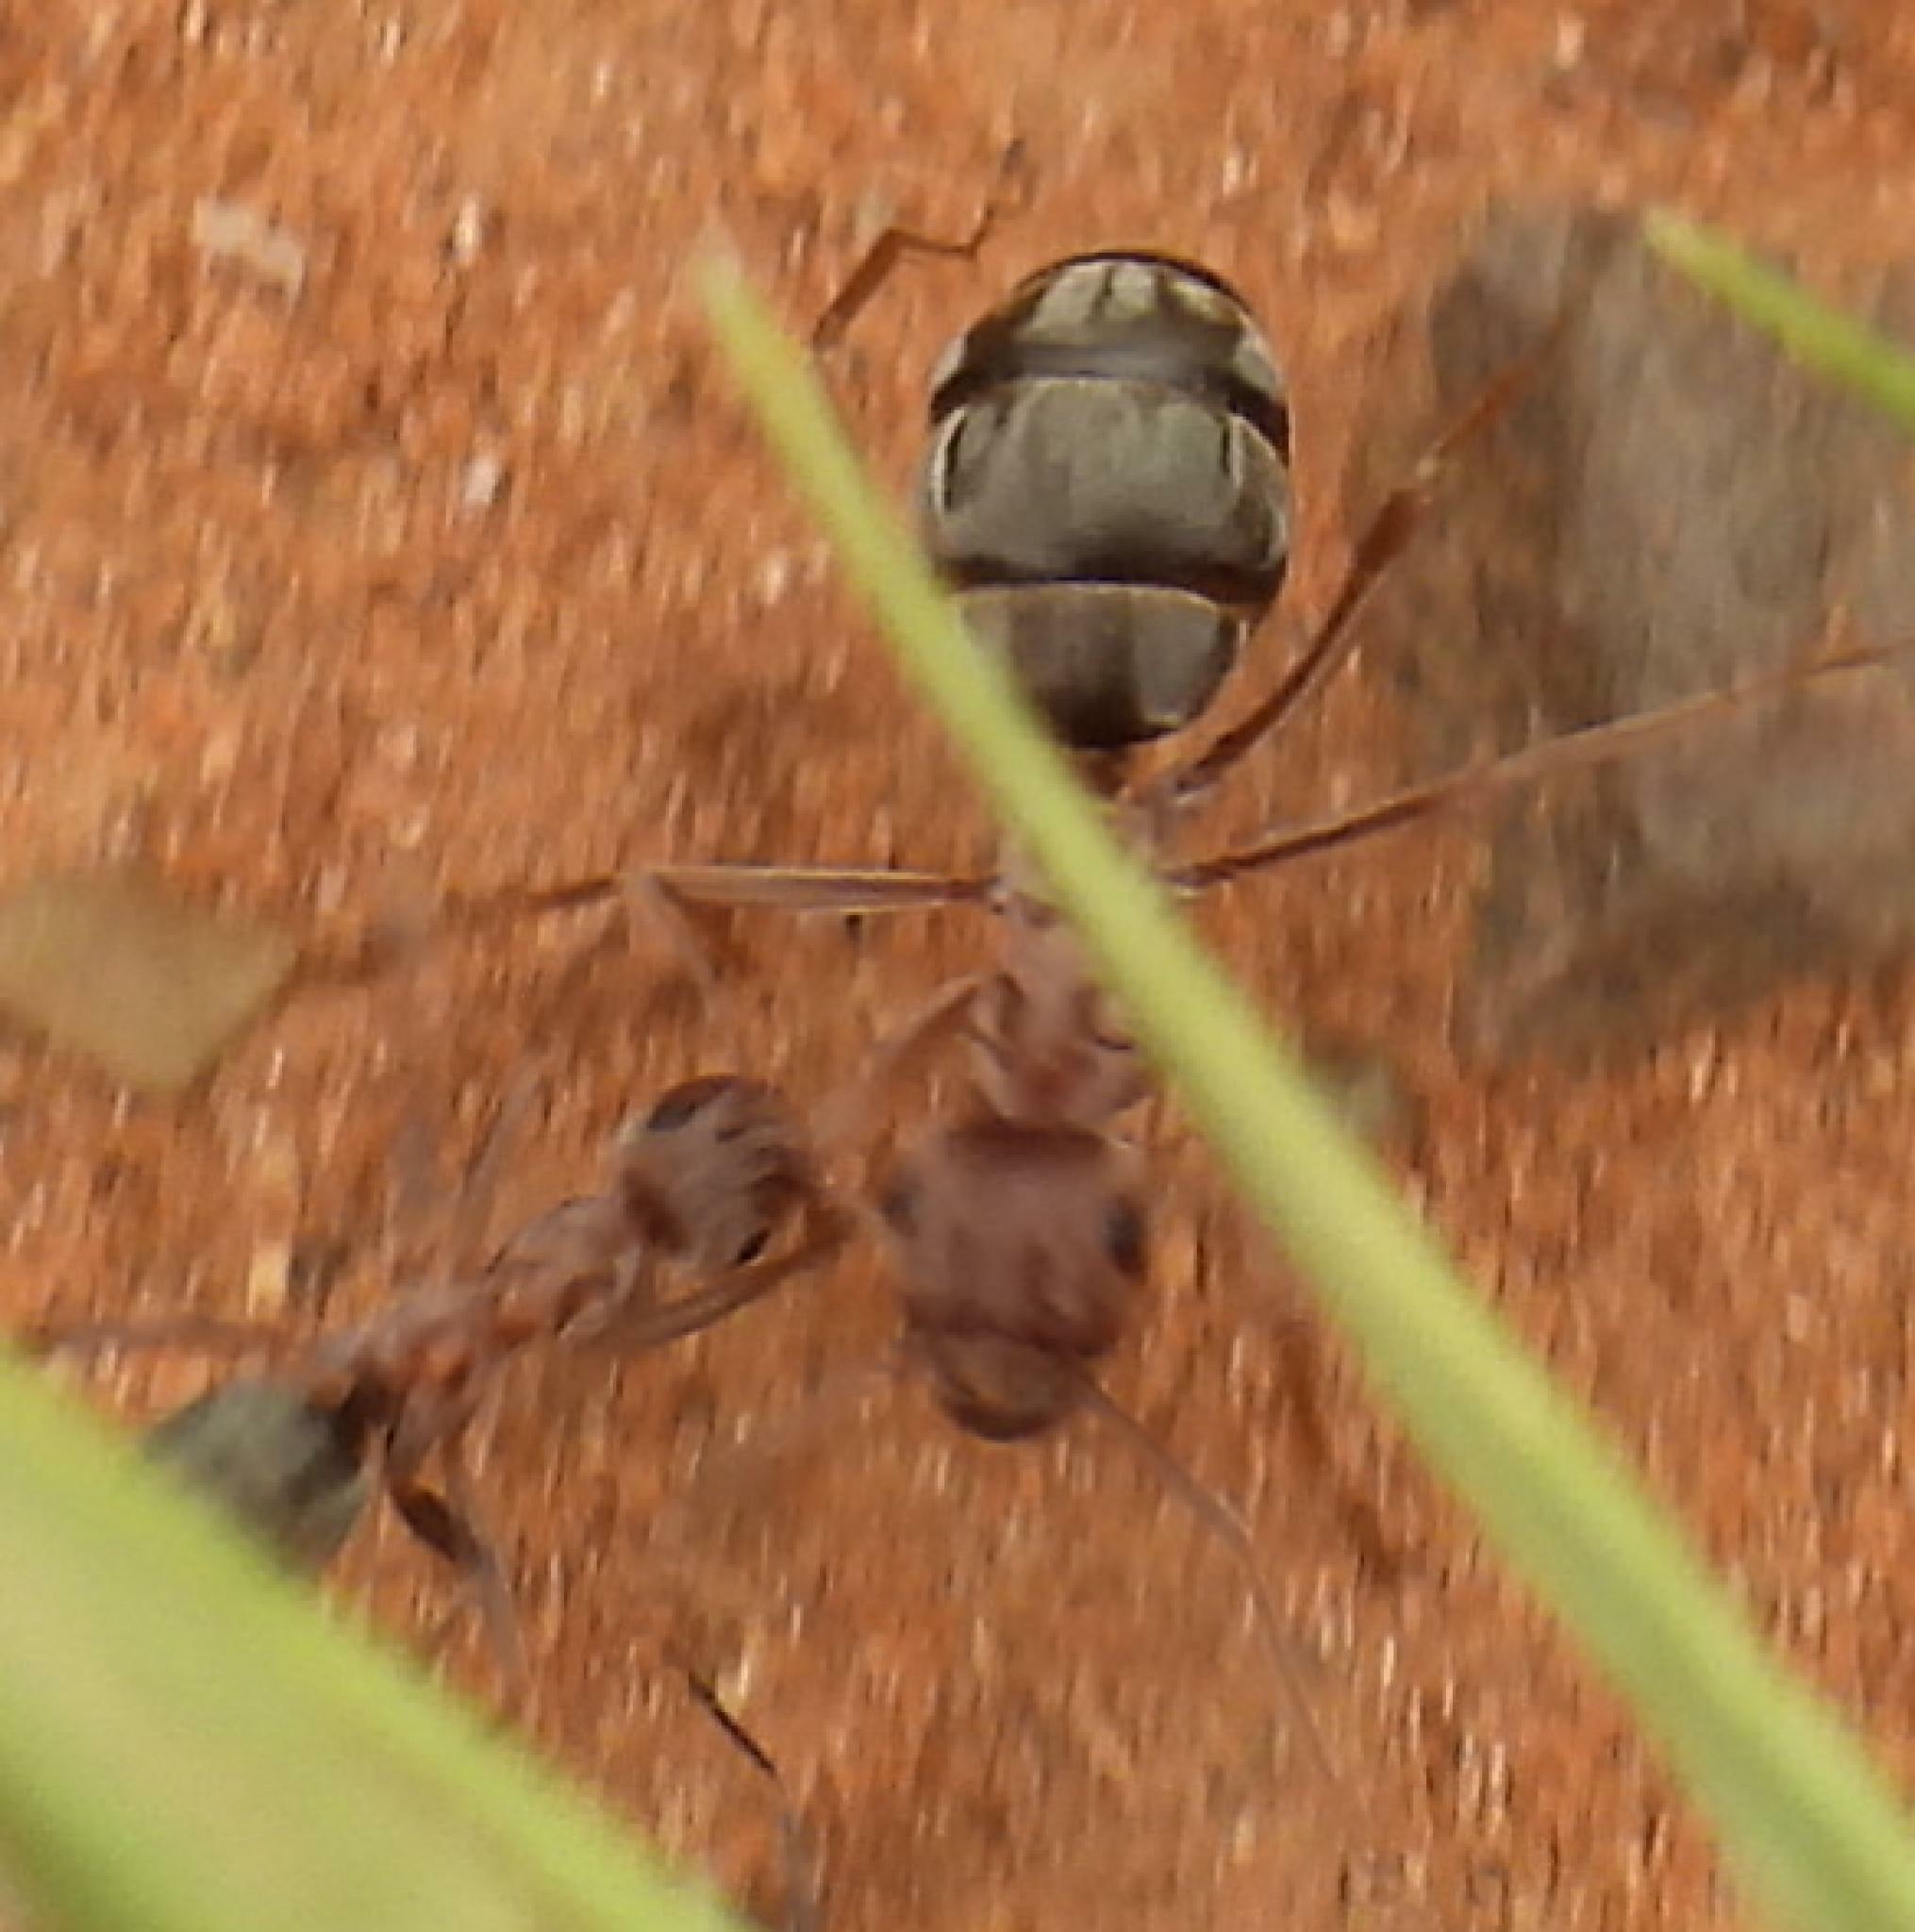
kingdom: Animalia
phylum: Arthropoda
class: Insecta
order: Hymenoptera
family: Formicidae
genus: Anoplolepis
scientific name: Anoplolepis custodiens
